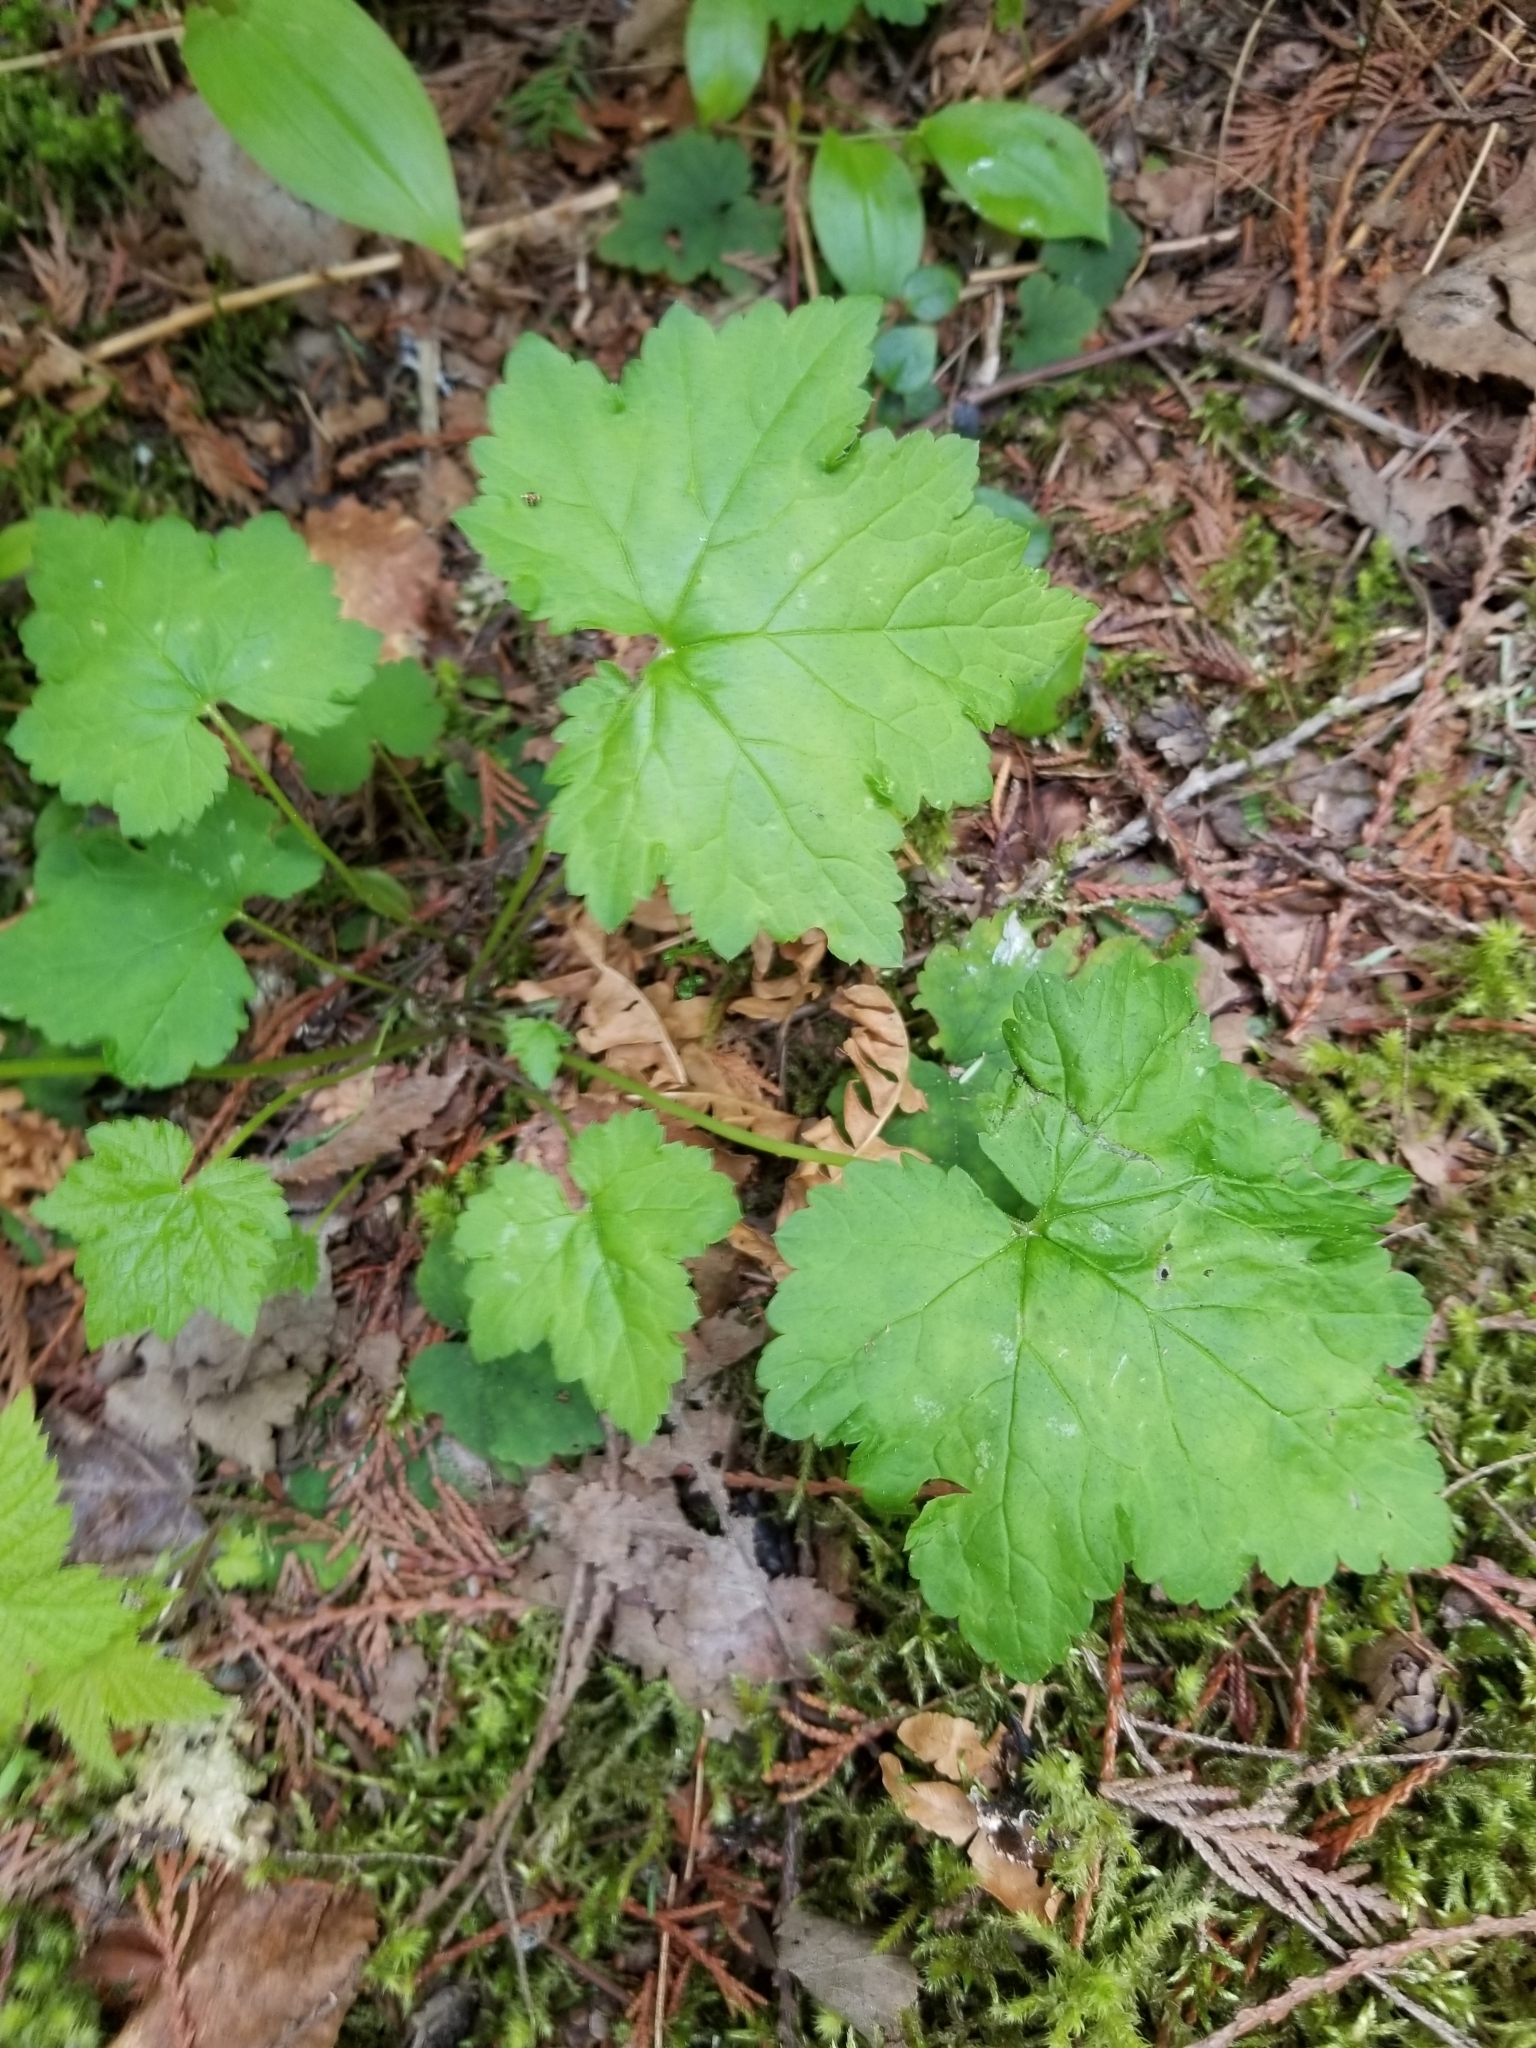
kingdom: Plantae
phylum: Tracheophyta
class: Magnoliopsida
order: Saxifragales
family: Saxifragaceae
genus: Tiarella
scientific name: Tiarella trifoliata
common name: Sugar-scoop
